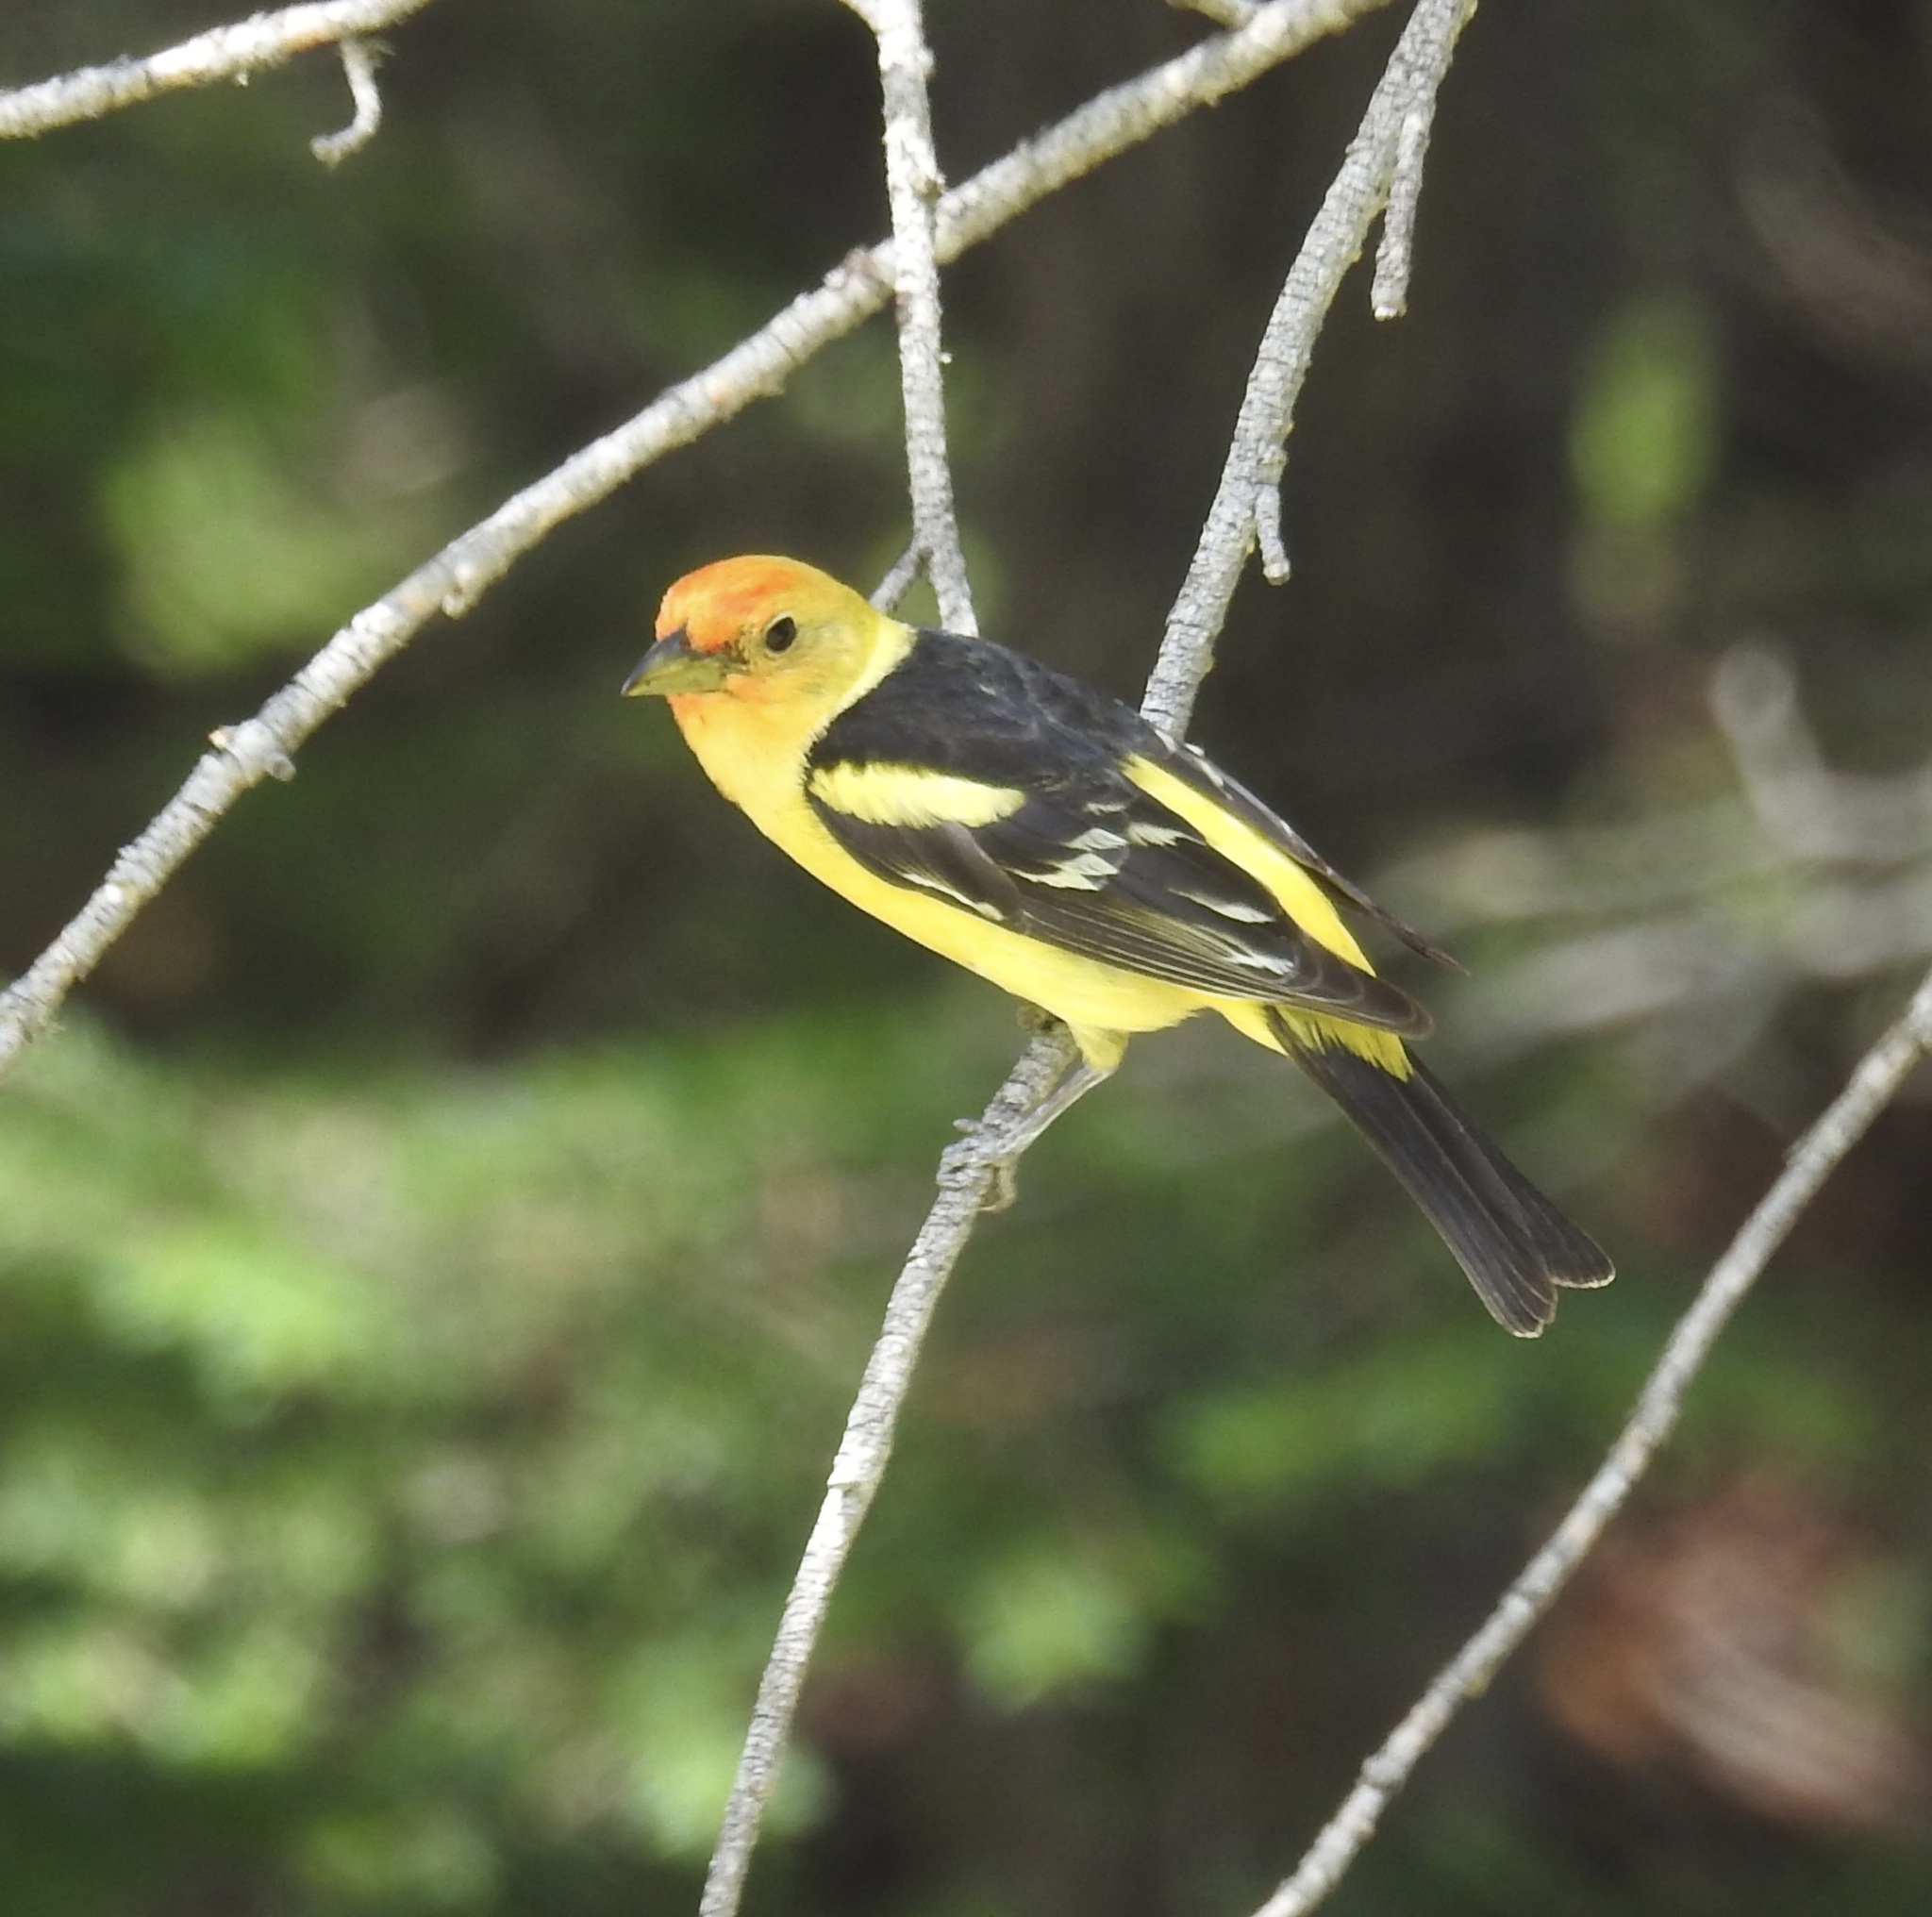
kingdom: Animalia
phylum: Chordata
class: Aves
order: Passeriformes
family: Cardinalidae
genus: Piranga
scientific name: Piranga ludoviciana
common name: Western tanager
